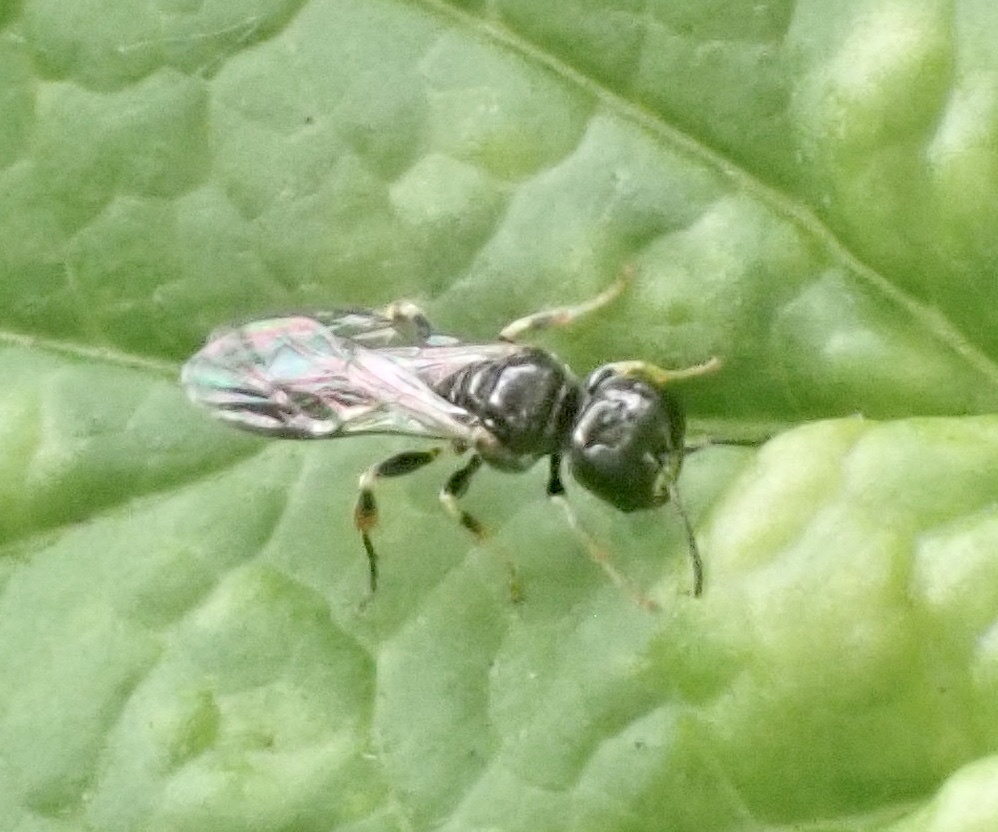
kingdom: Animalia
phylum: Arthropoda
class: Insecta
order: Hymenoptera
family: Crabronidae
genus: Rhopalum
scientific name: Rhopalum coarctatum
